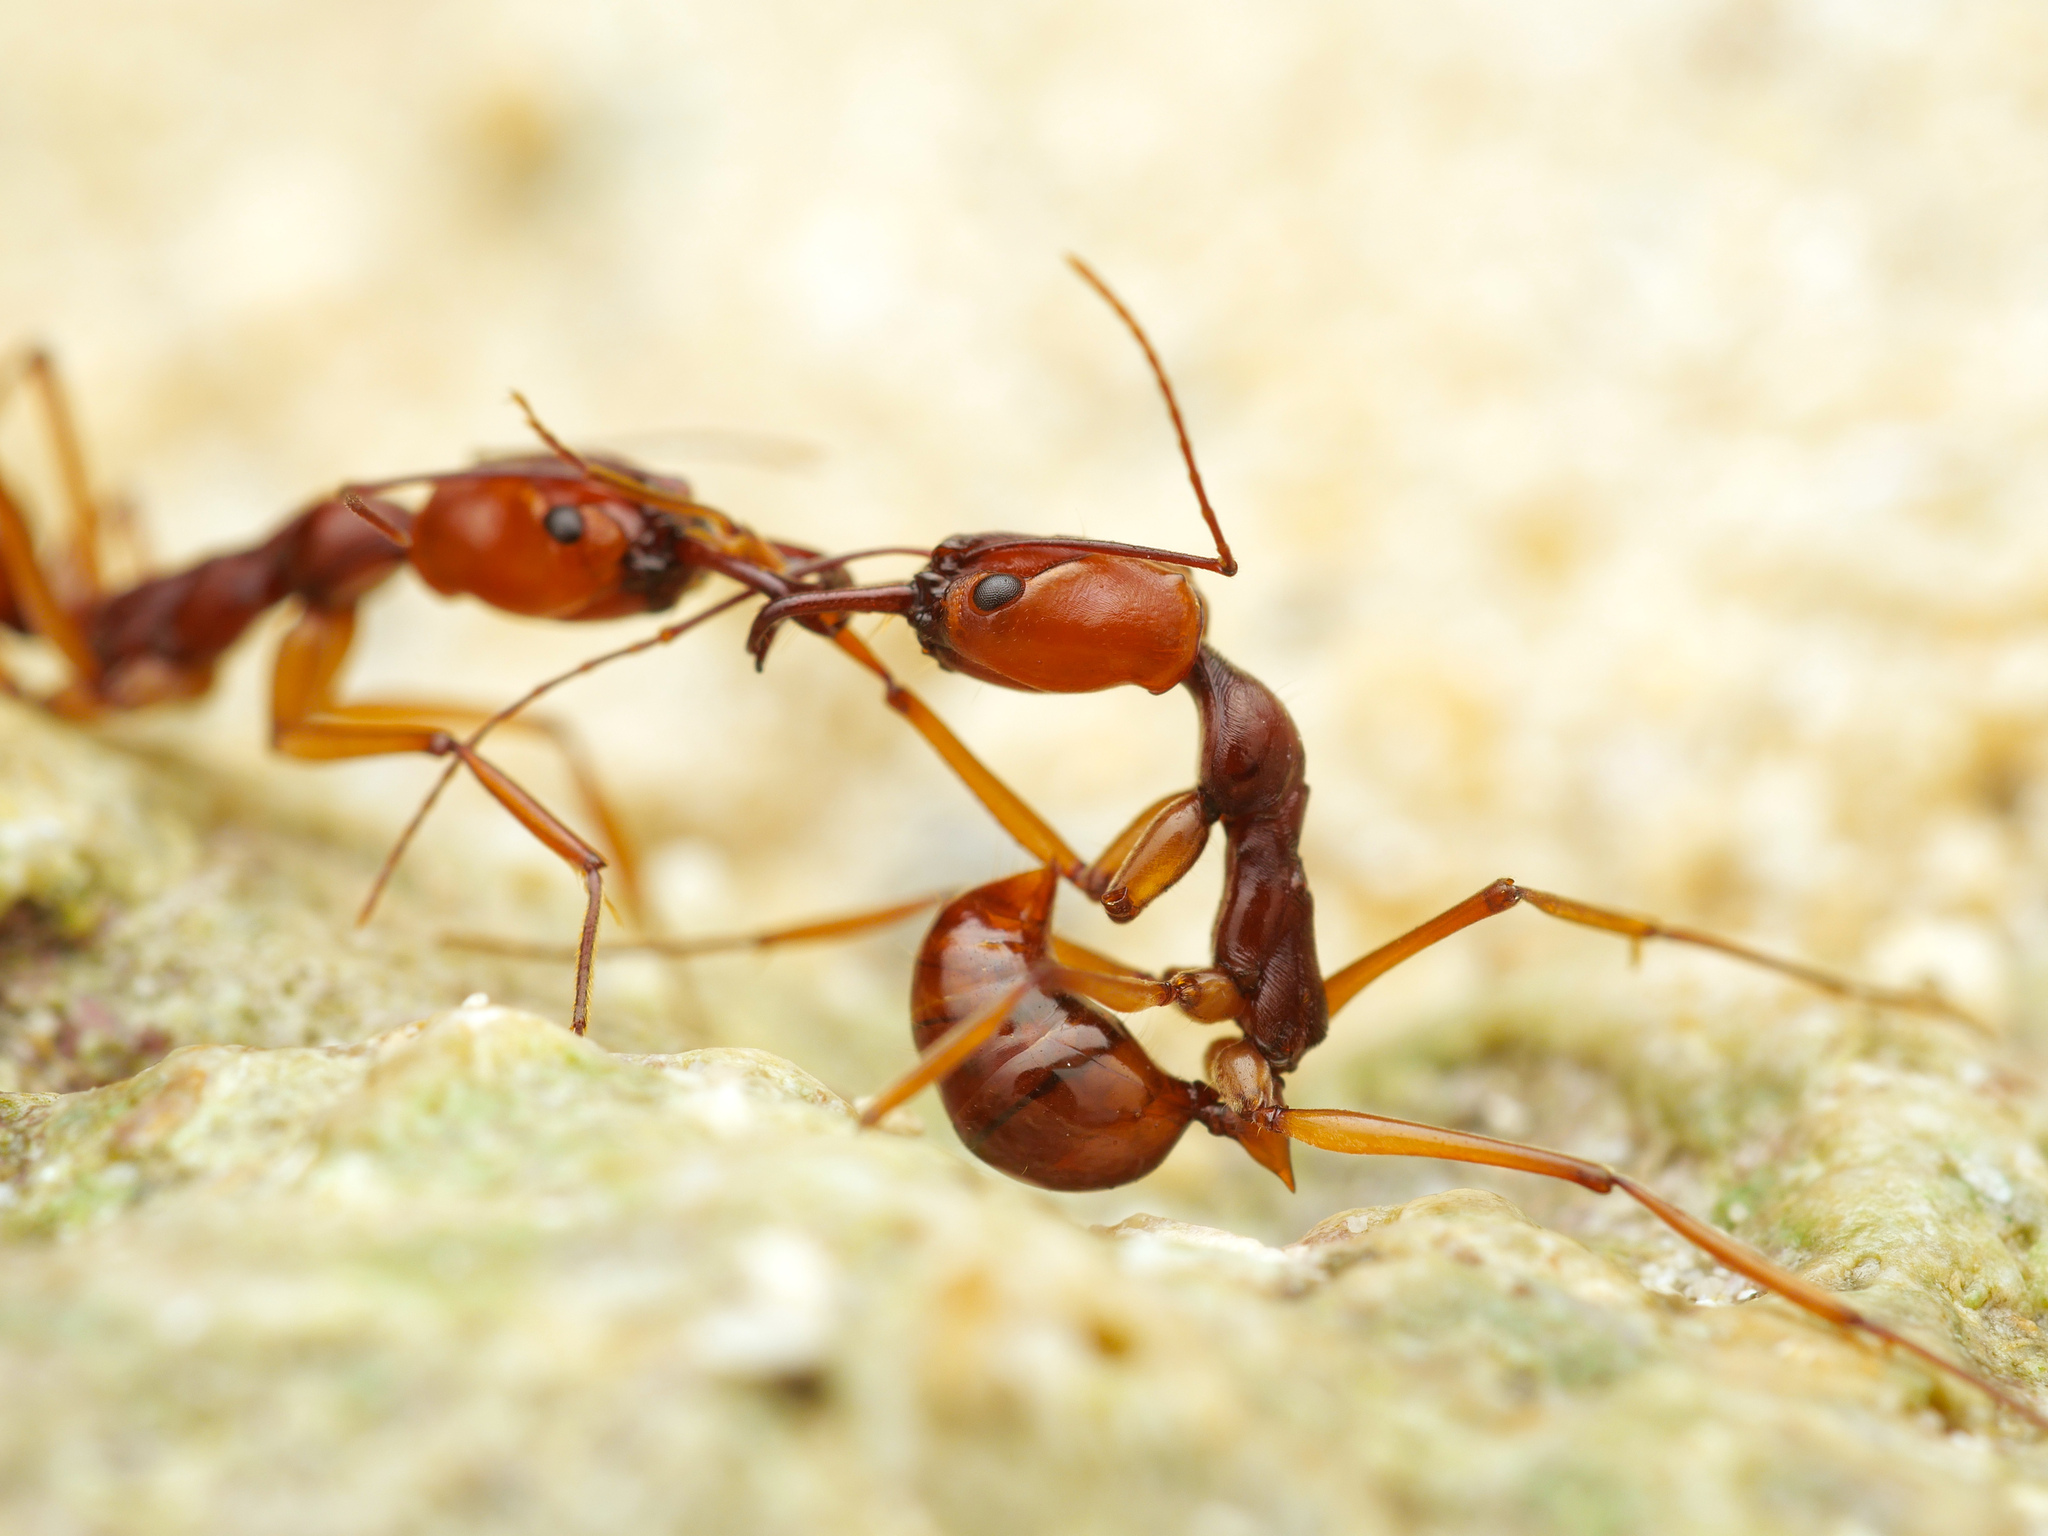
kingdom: Animalia
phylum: Arthropoda
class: Insecta
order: Hymenoptera
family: Formicidae
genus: Odontomachus
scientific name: Odontomachus malignus
